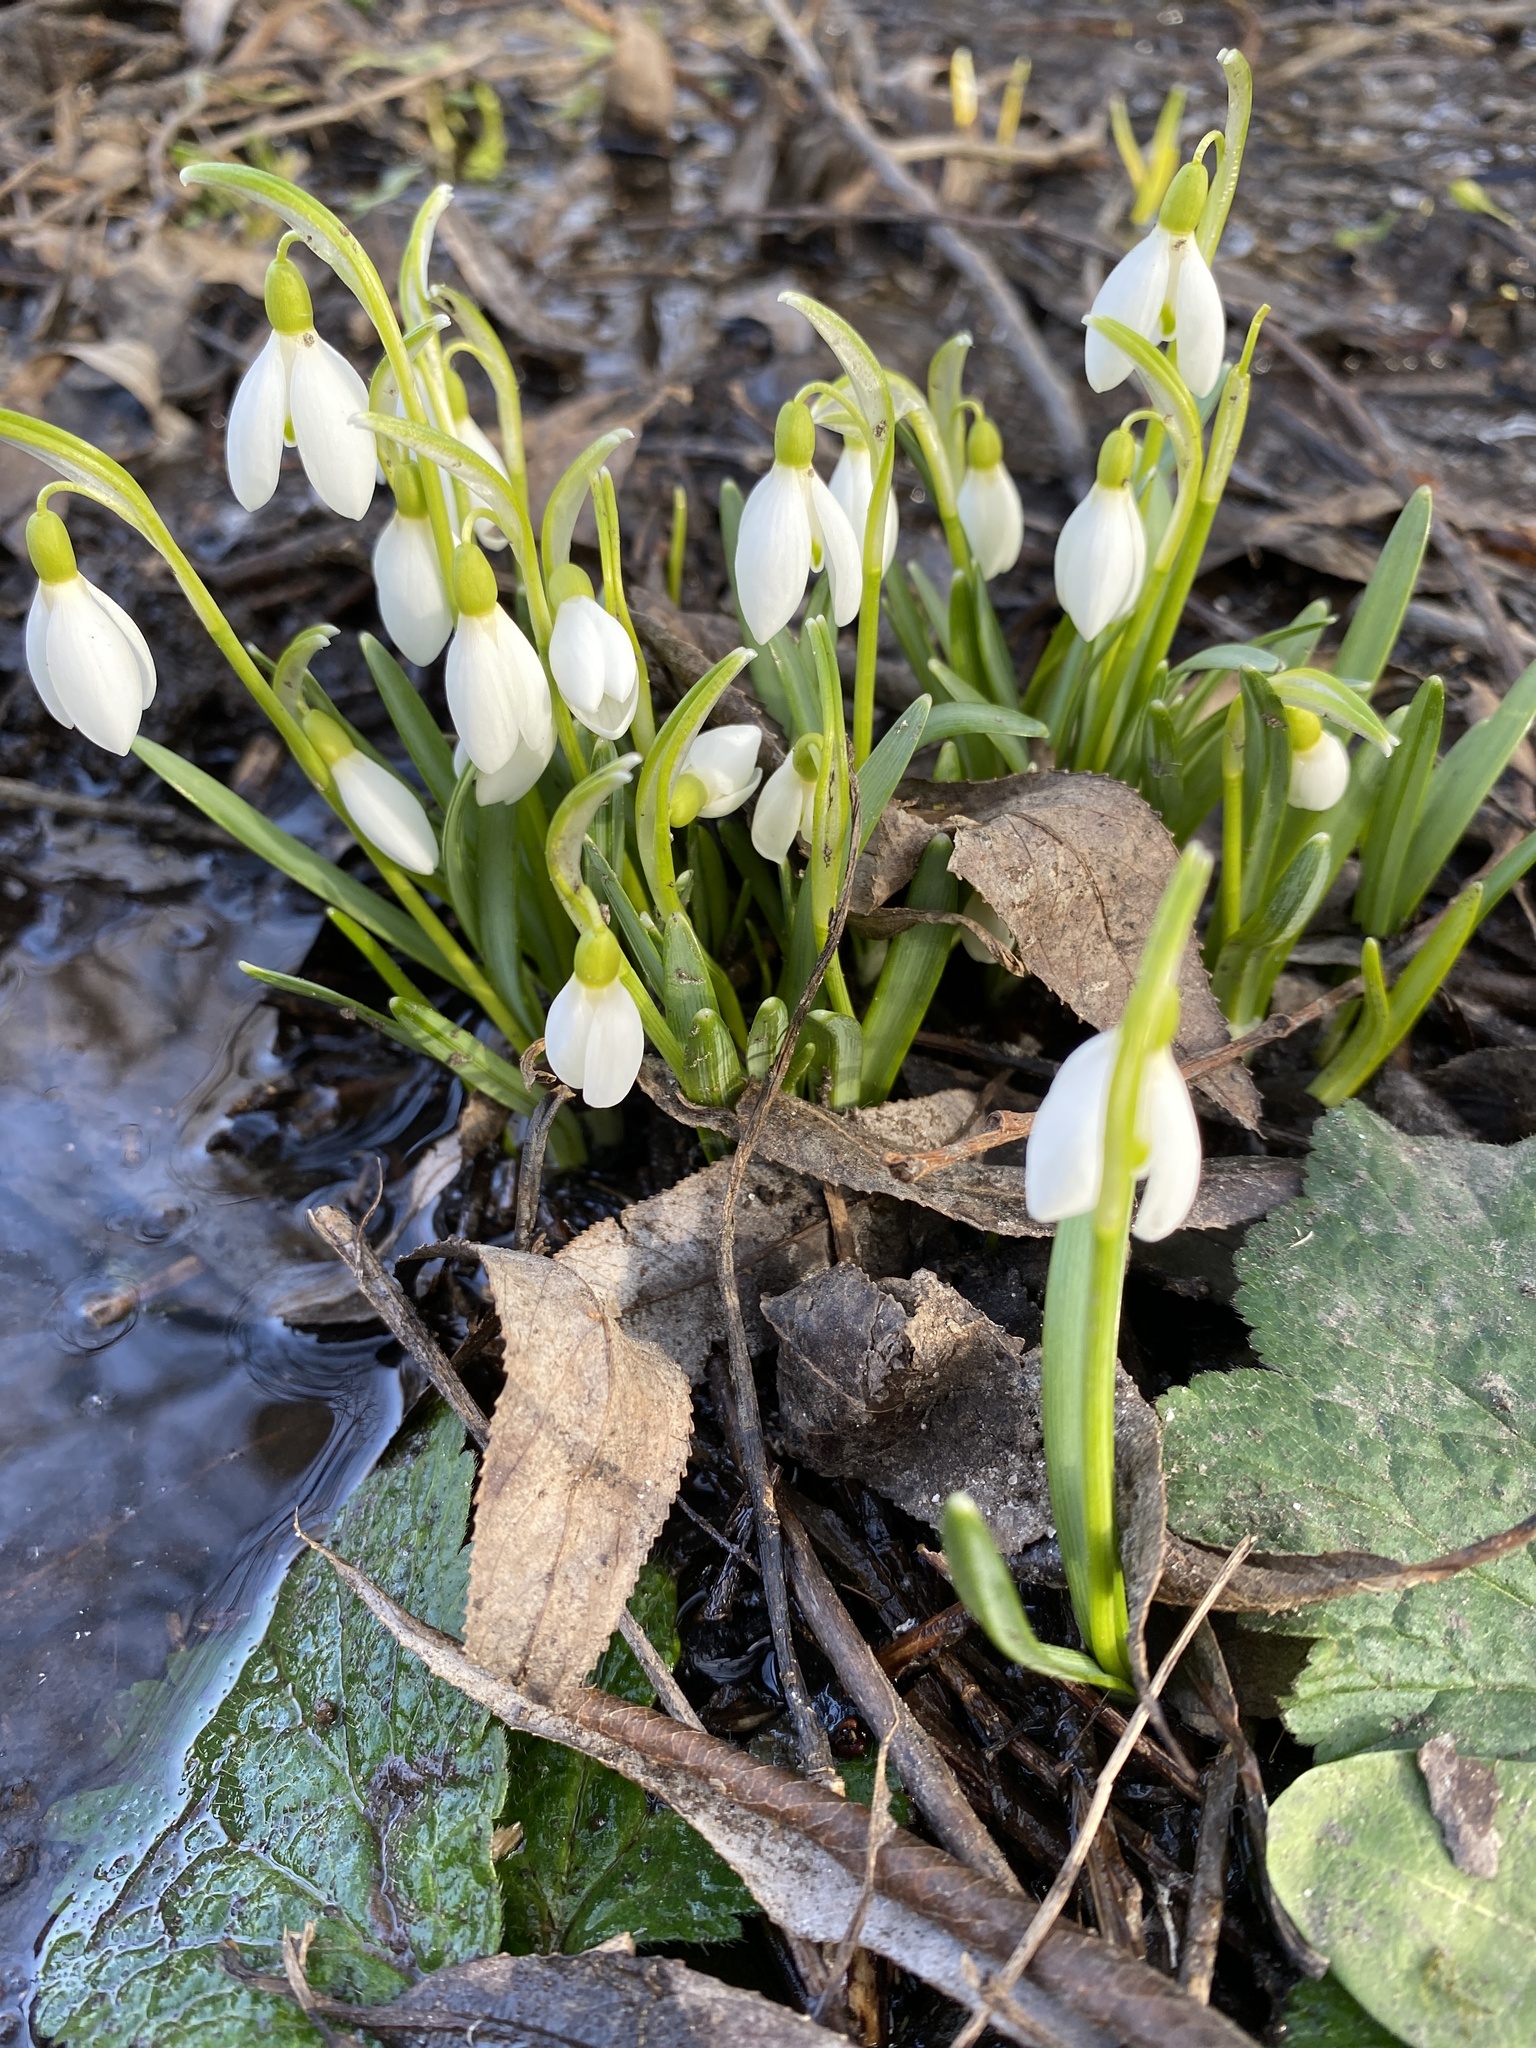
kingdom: Plantae
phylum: Tracheophyta
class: Liliopsida
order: Asparagales
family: Amaryllidaceae
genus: Galanthus
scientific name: Galanthus nivalis
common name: Snowdrop
